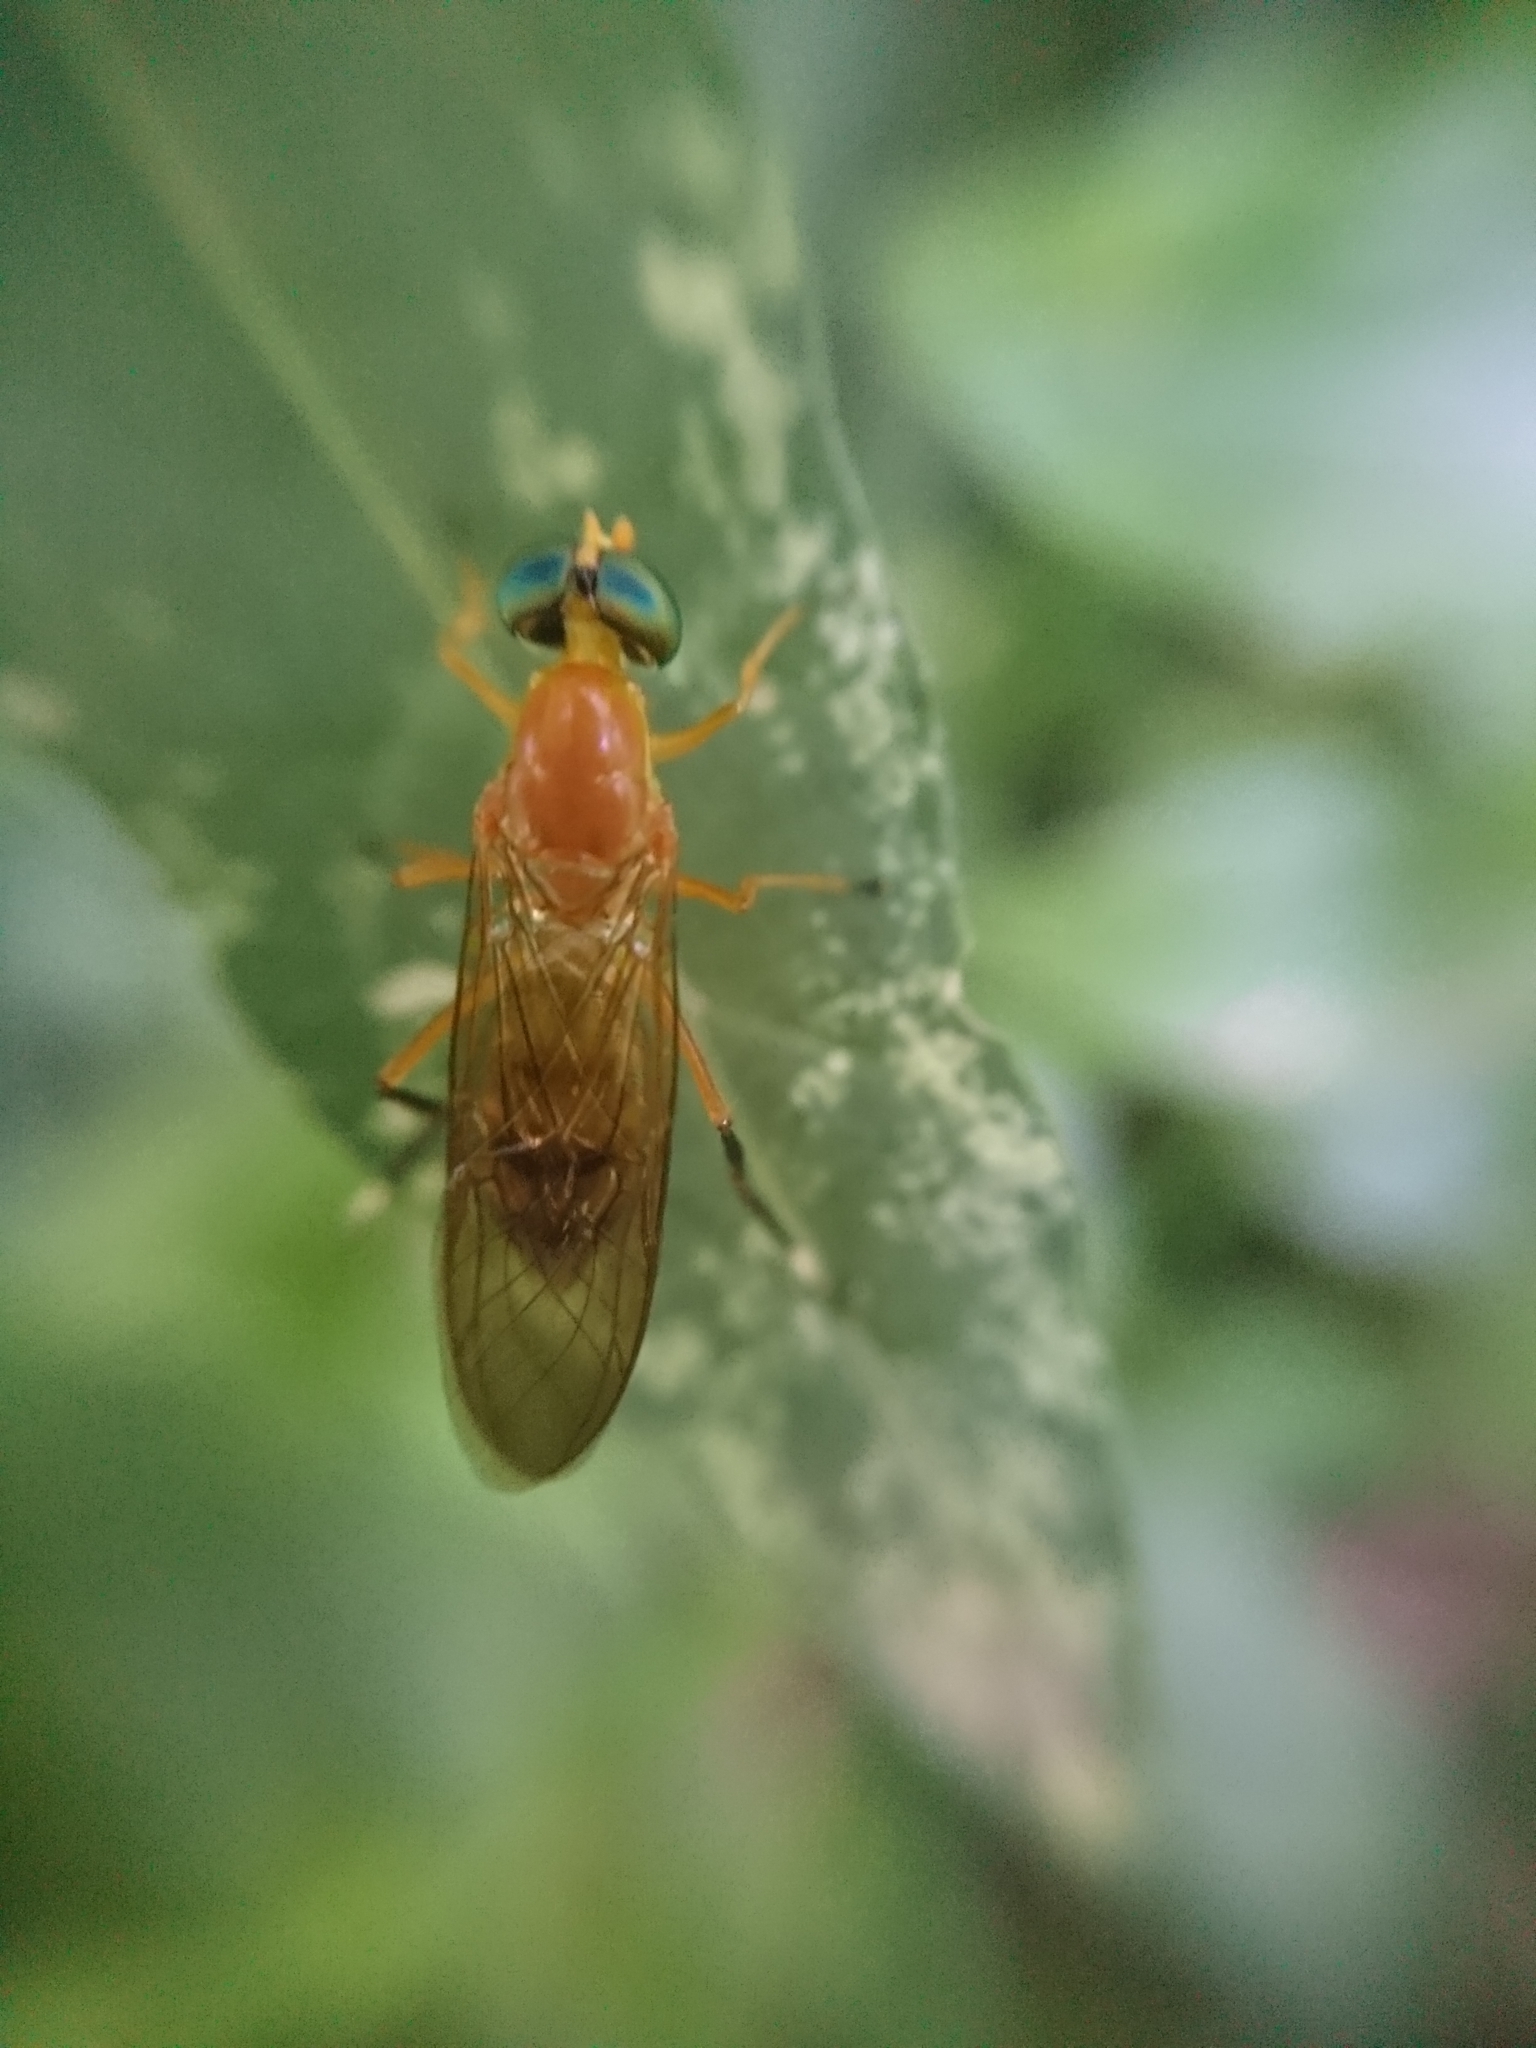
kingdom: Animalia
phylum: Arthropoda
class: Insecta
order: Diptera
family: Stratiomyidae
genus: Ptecticus
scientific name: Ptecticus testaceus
